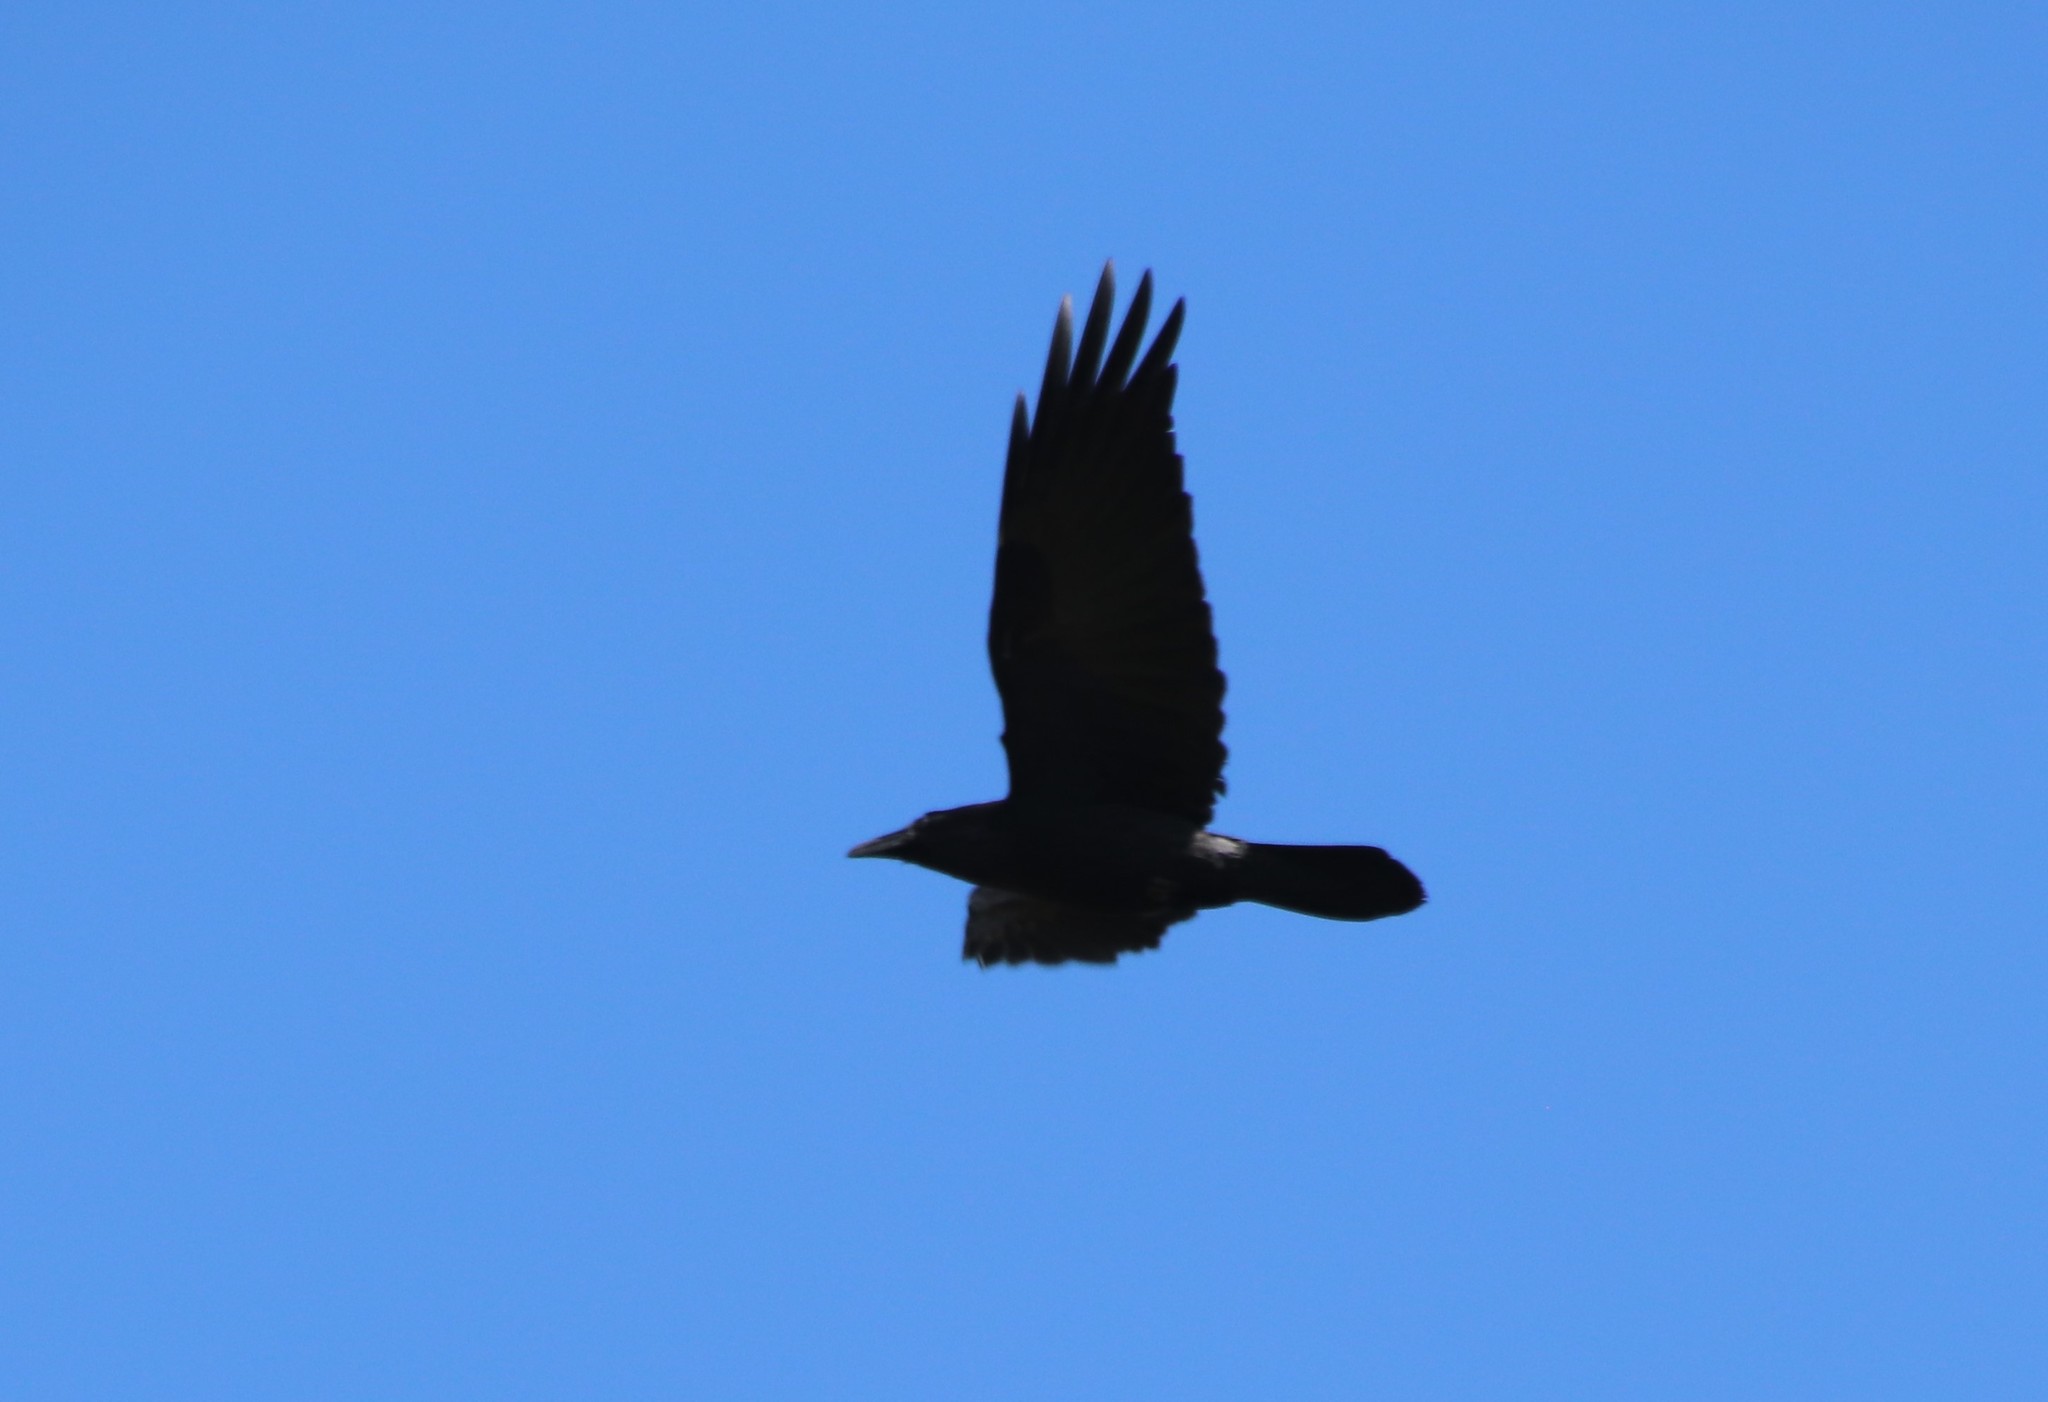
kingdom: Animalia
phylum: Chordata
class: Aves
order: Passeriformes
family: Corvidae
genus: Corvus
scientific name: Corvus corax
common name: Common raven
